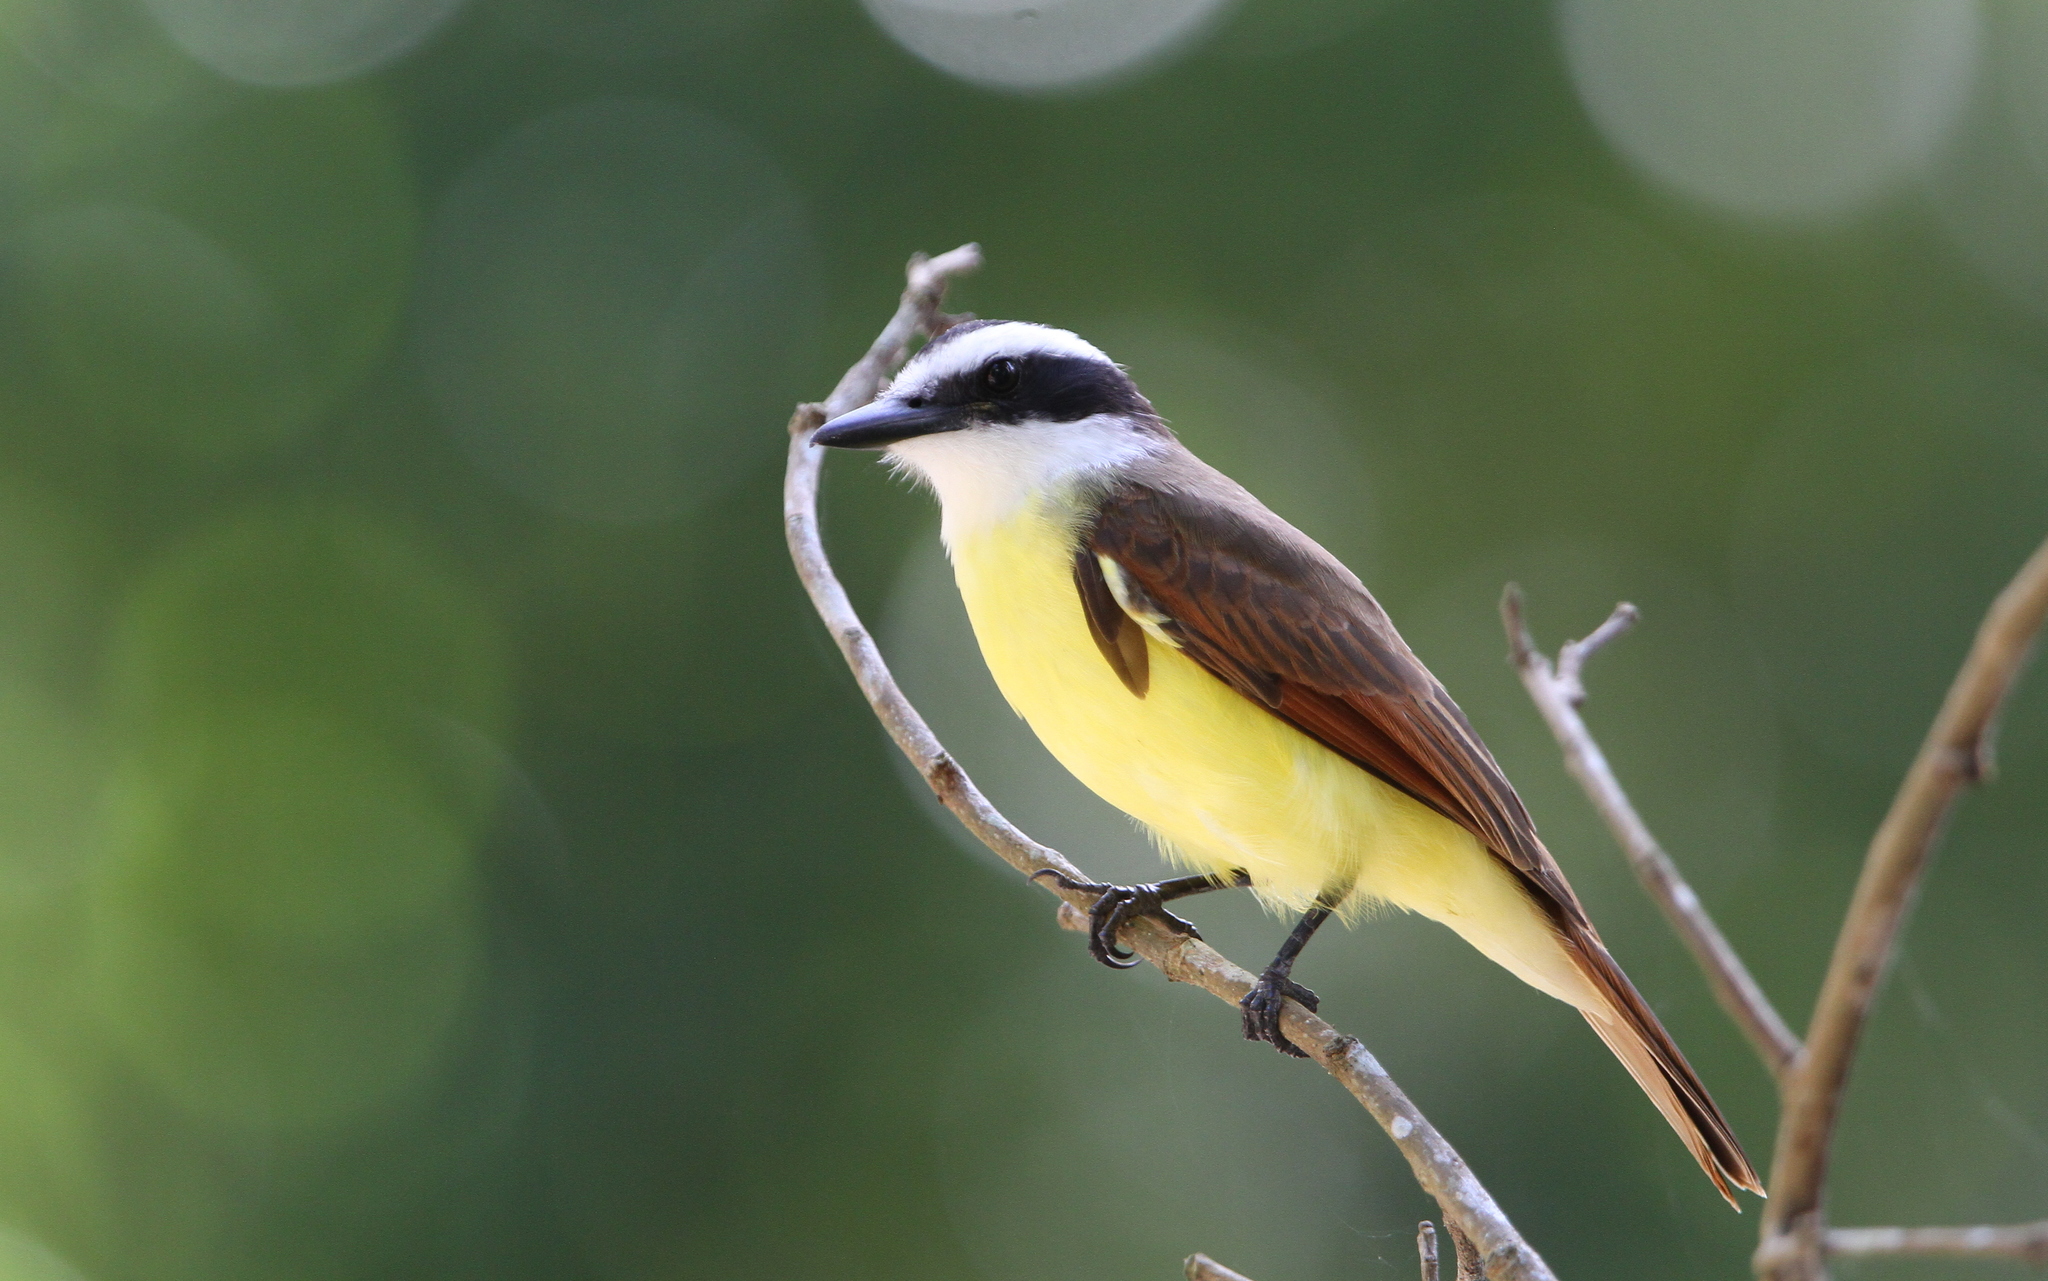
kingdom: Animalia
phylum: Chordata
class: Aves
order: Passeriformes
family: Tyrannidae
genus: Pitangus
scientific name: Pitangus sulphuratus
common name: Great kiskadee
